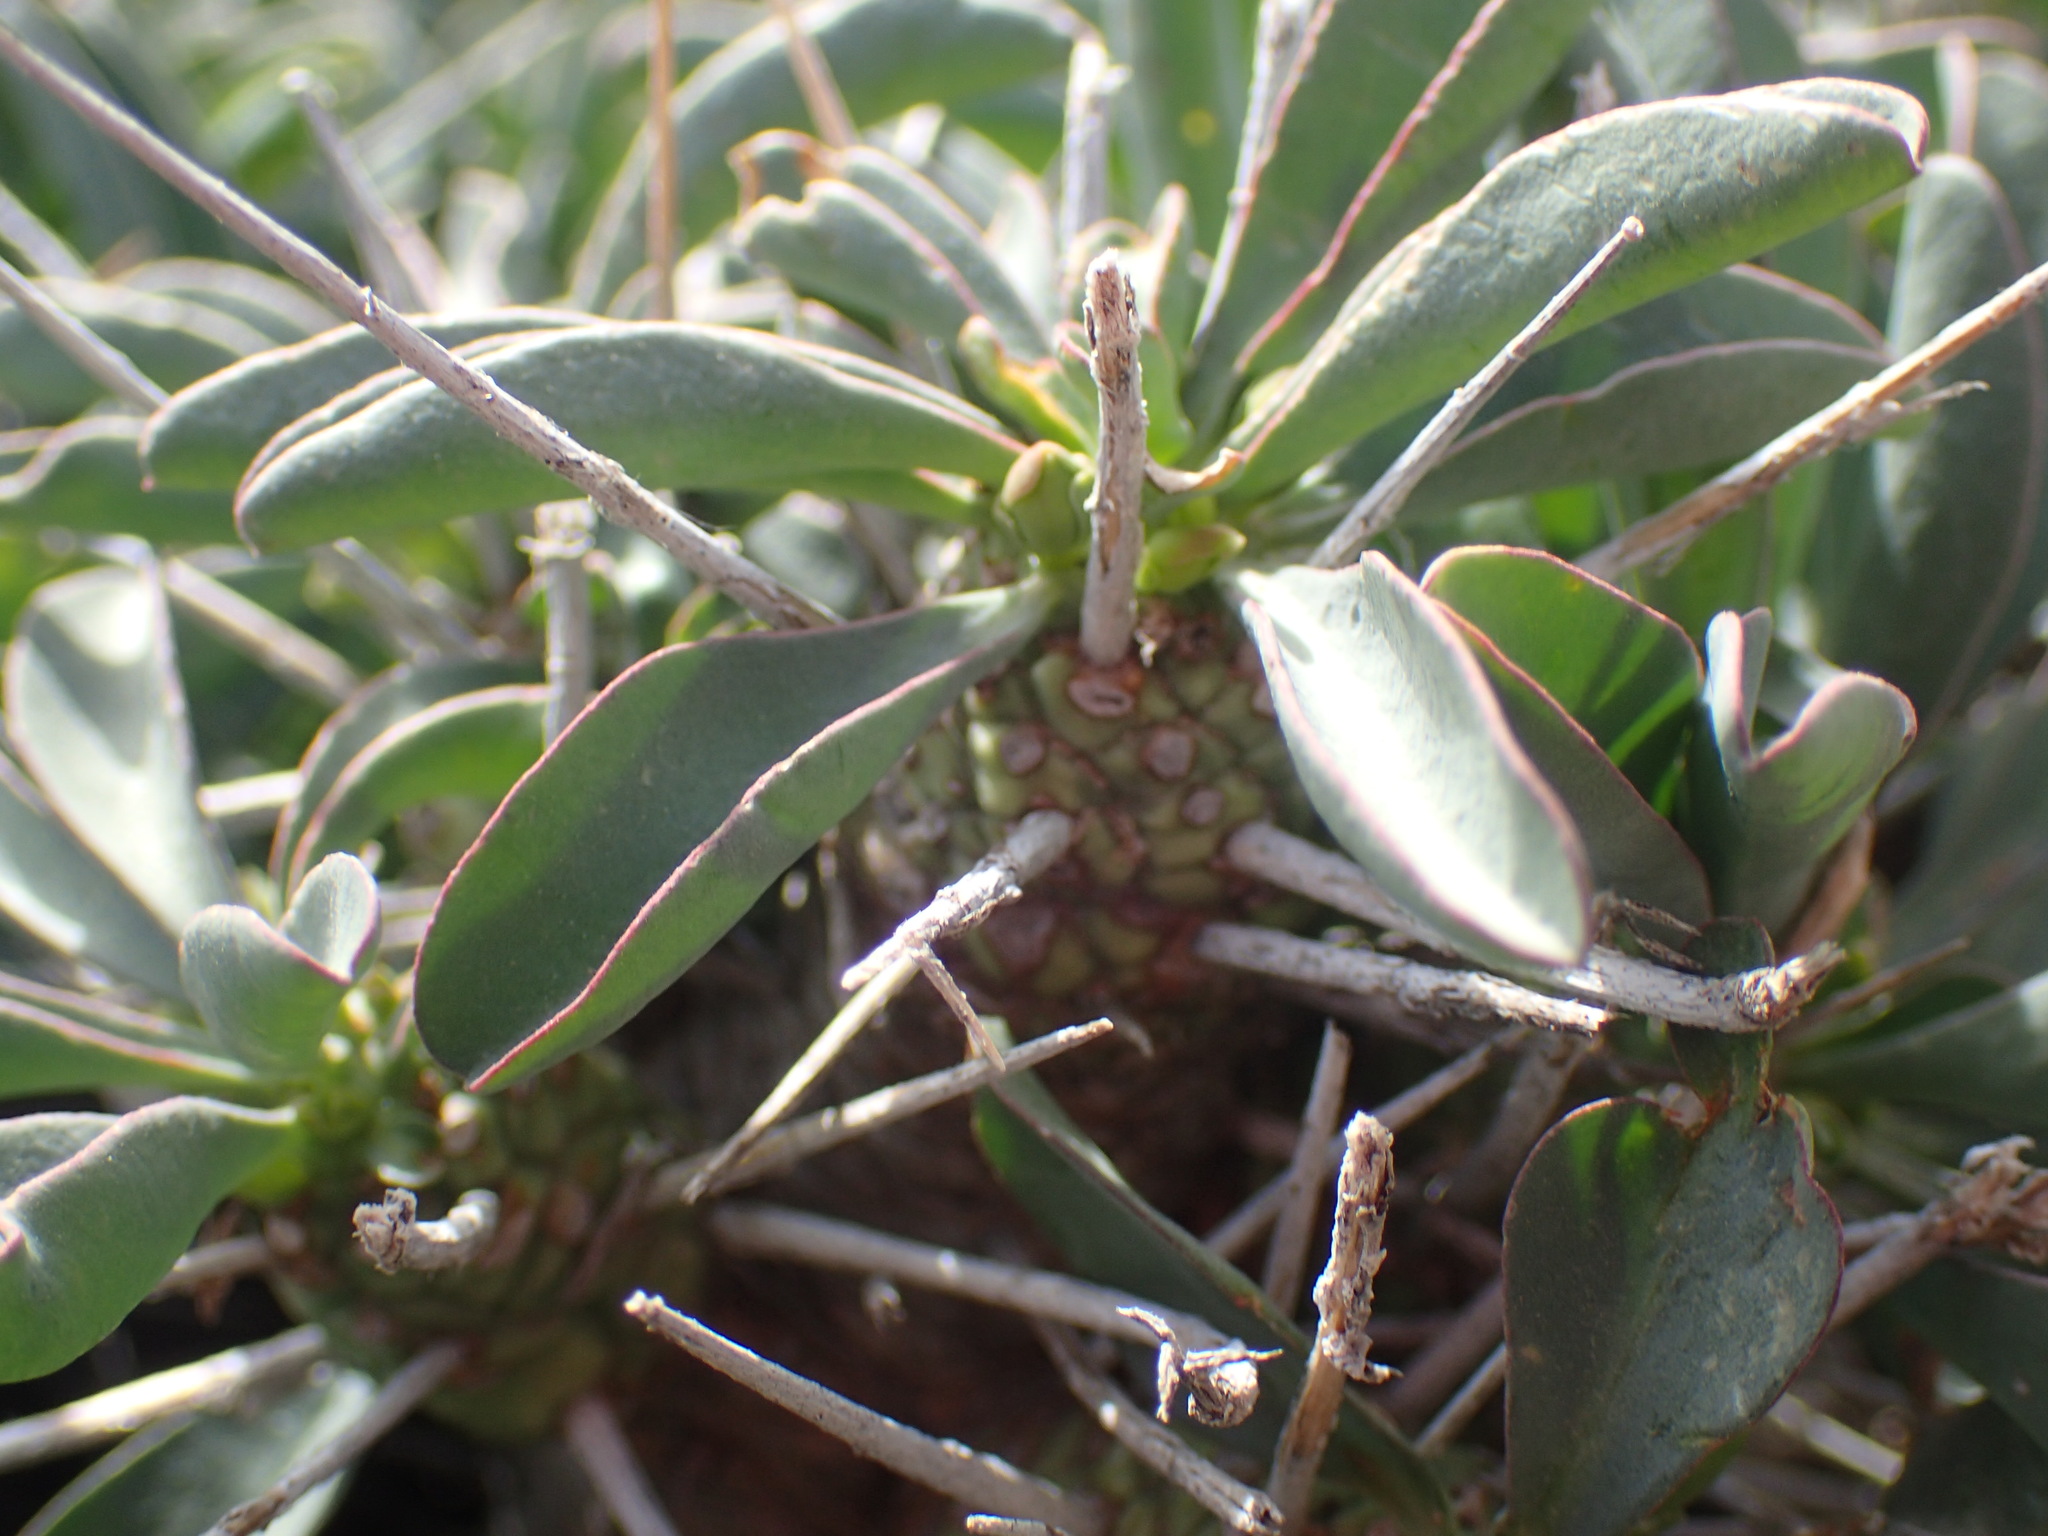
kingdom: Plantae
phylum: Tracheophyta
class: Magnoliopsida
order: Malpighiales
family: Euphorbiaceae
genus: Euphorbia
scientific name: Euphorbia loricata
